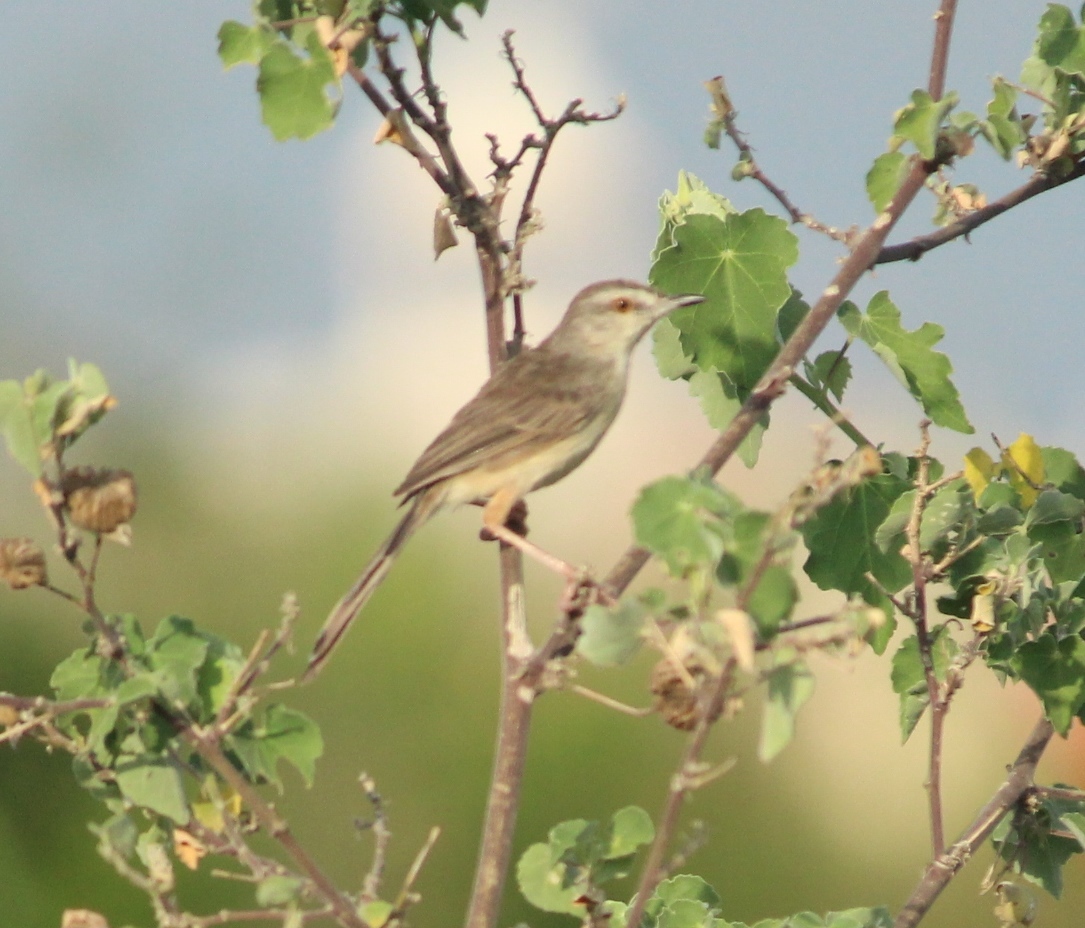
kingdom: Animalia
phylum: Chordata
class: Aves
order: Passeriformes
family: Cisticolidae
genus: Prinia
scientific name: Prinia inornata
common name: Plain prinia
